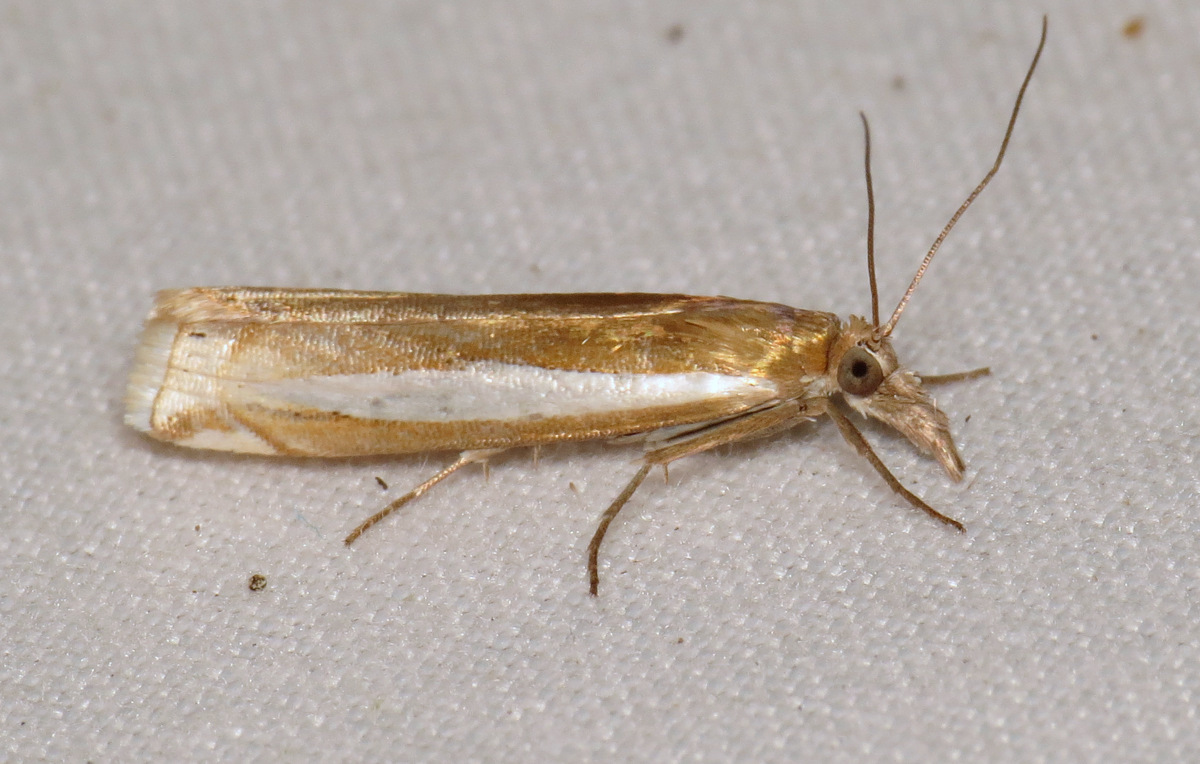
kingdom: Animalia
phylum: Arthropoda
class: Insecta
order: Lepidoptera
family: Crambidae
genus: Crambus
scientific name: Crambus praefectellus
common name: Common grass-veneer
